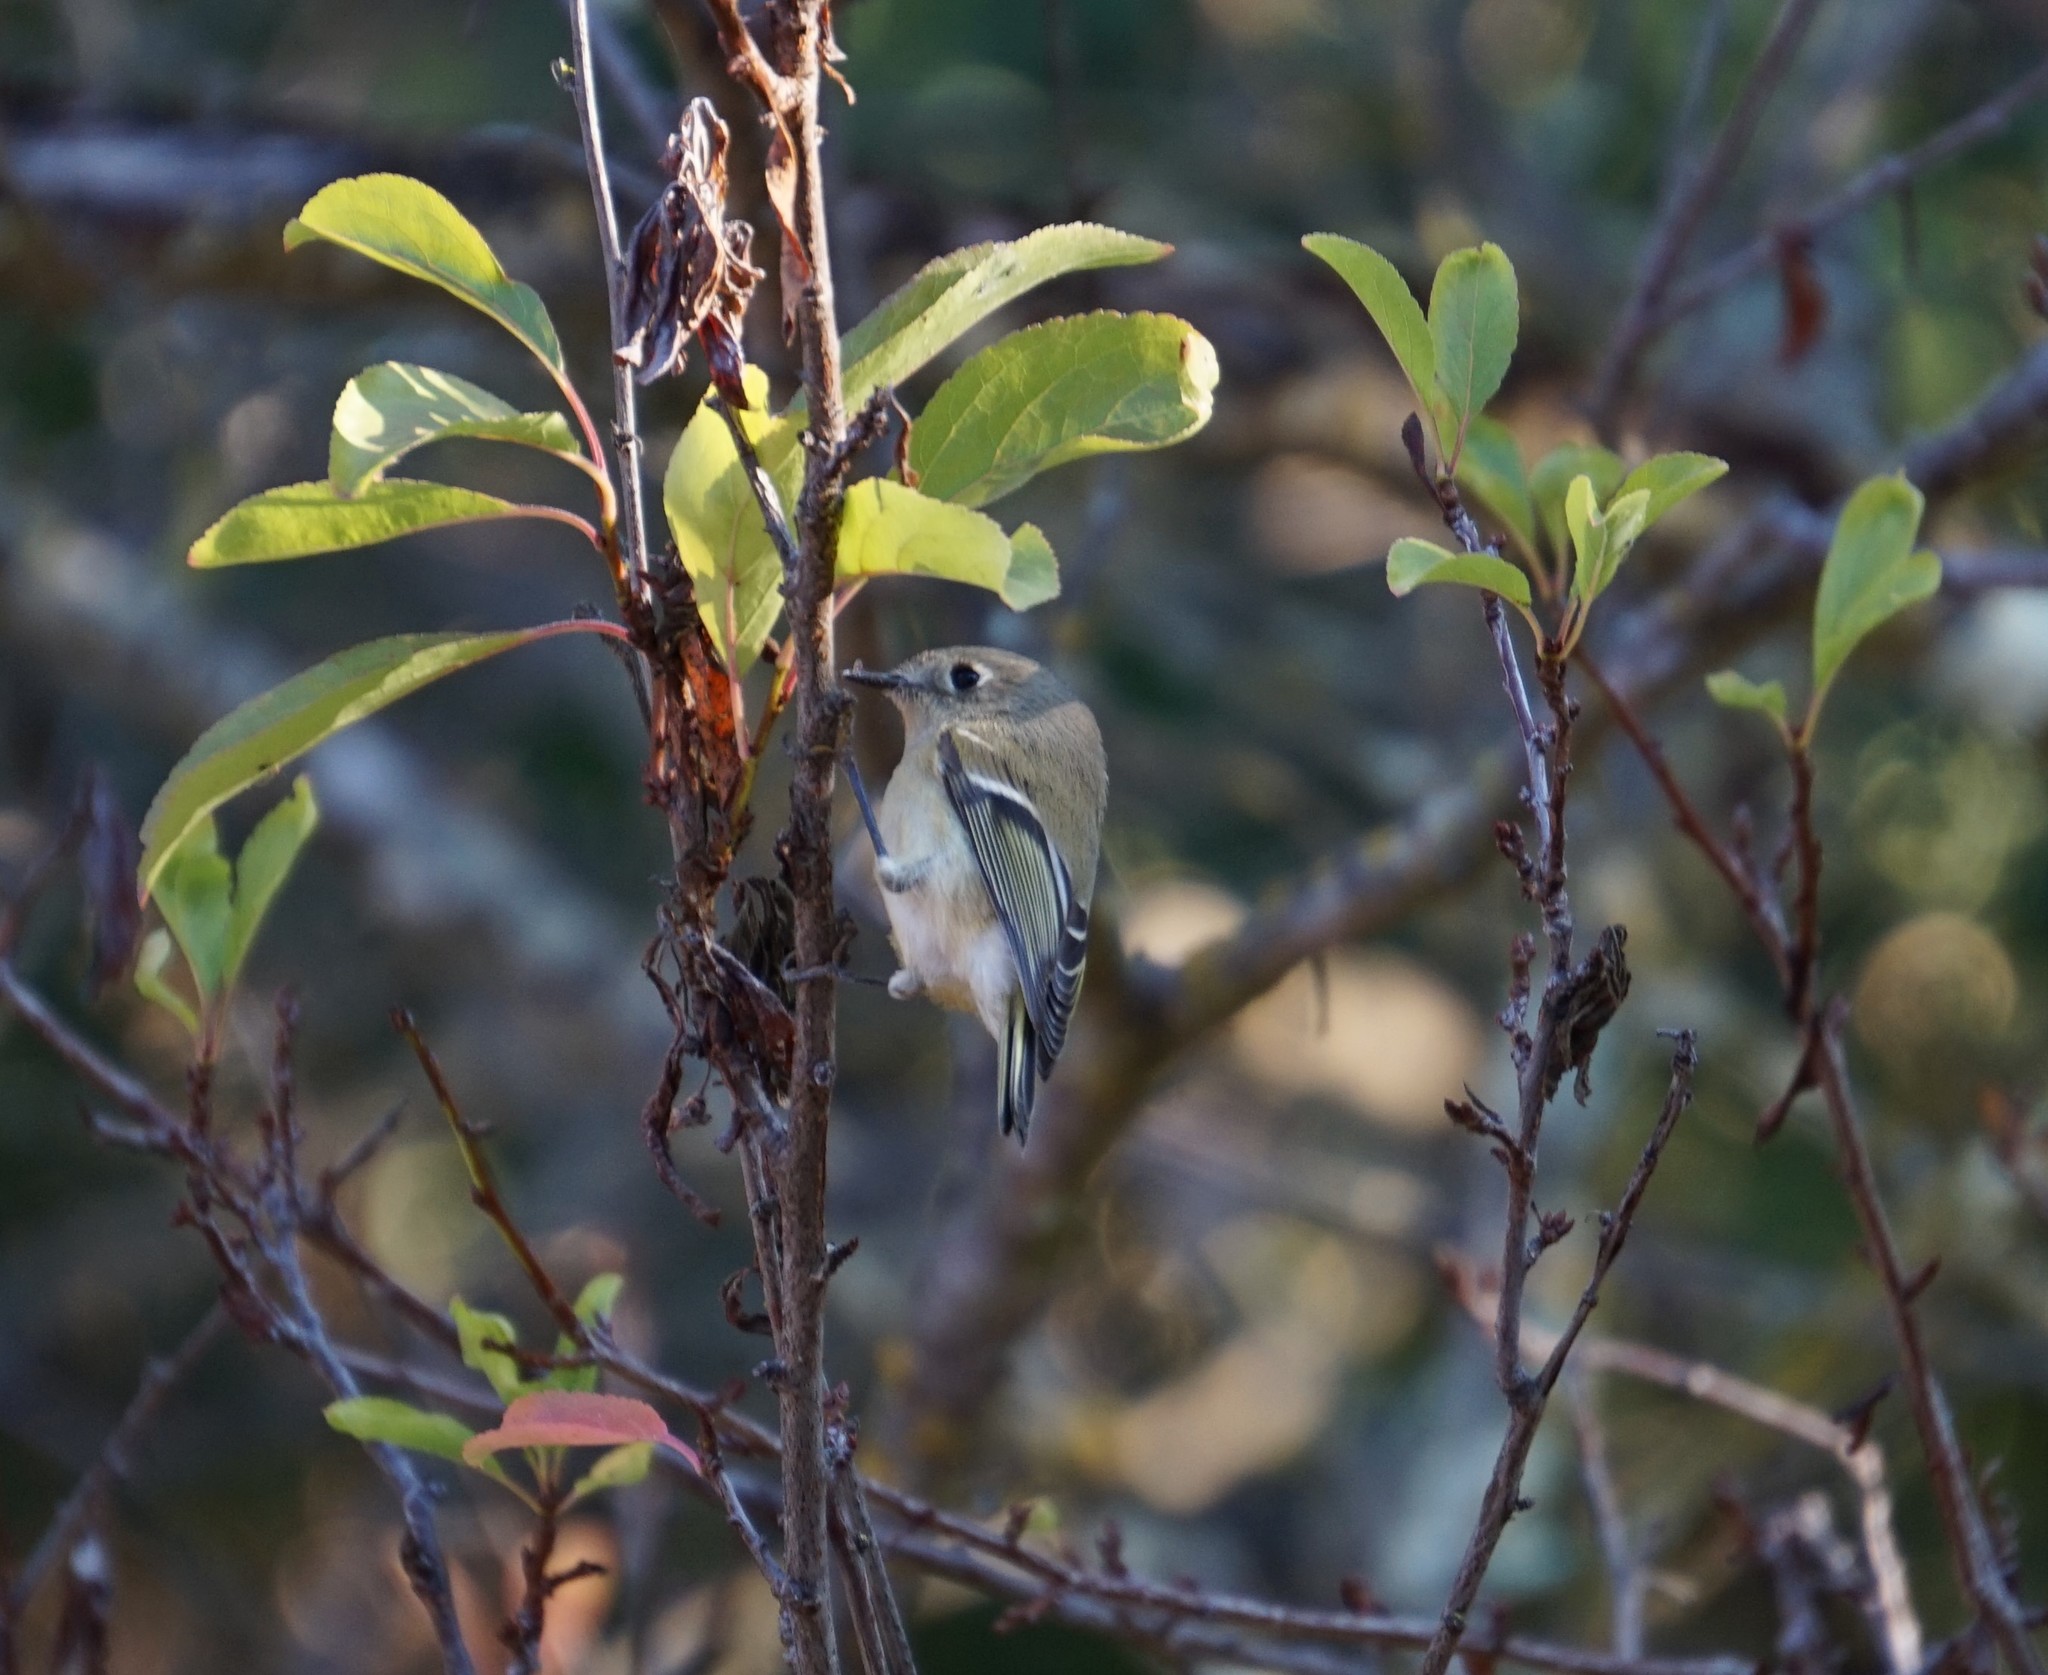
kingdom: Animalia
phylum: Chordata
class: Aves
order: Passeriformes
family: Regulidae
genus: Regulus
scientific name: Regulus calendula
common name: Ruby-crowned kinglet
